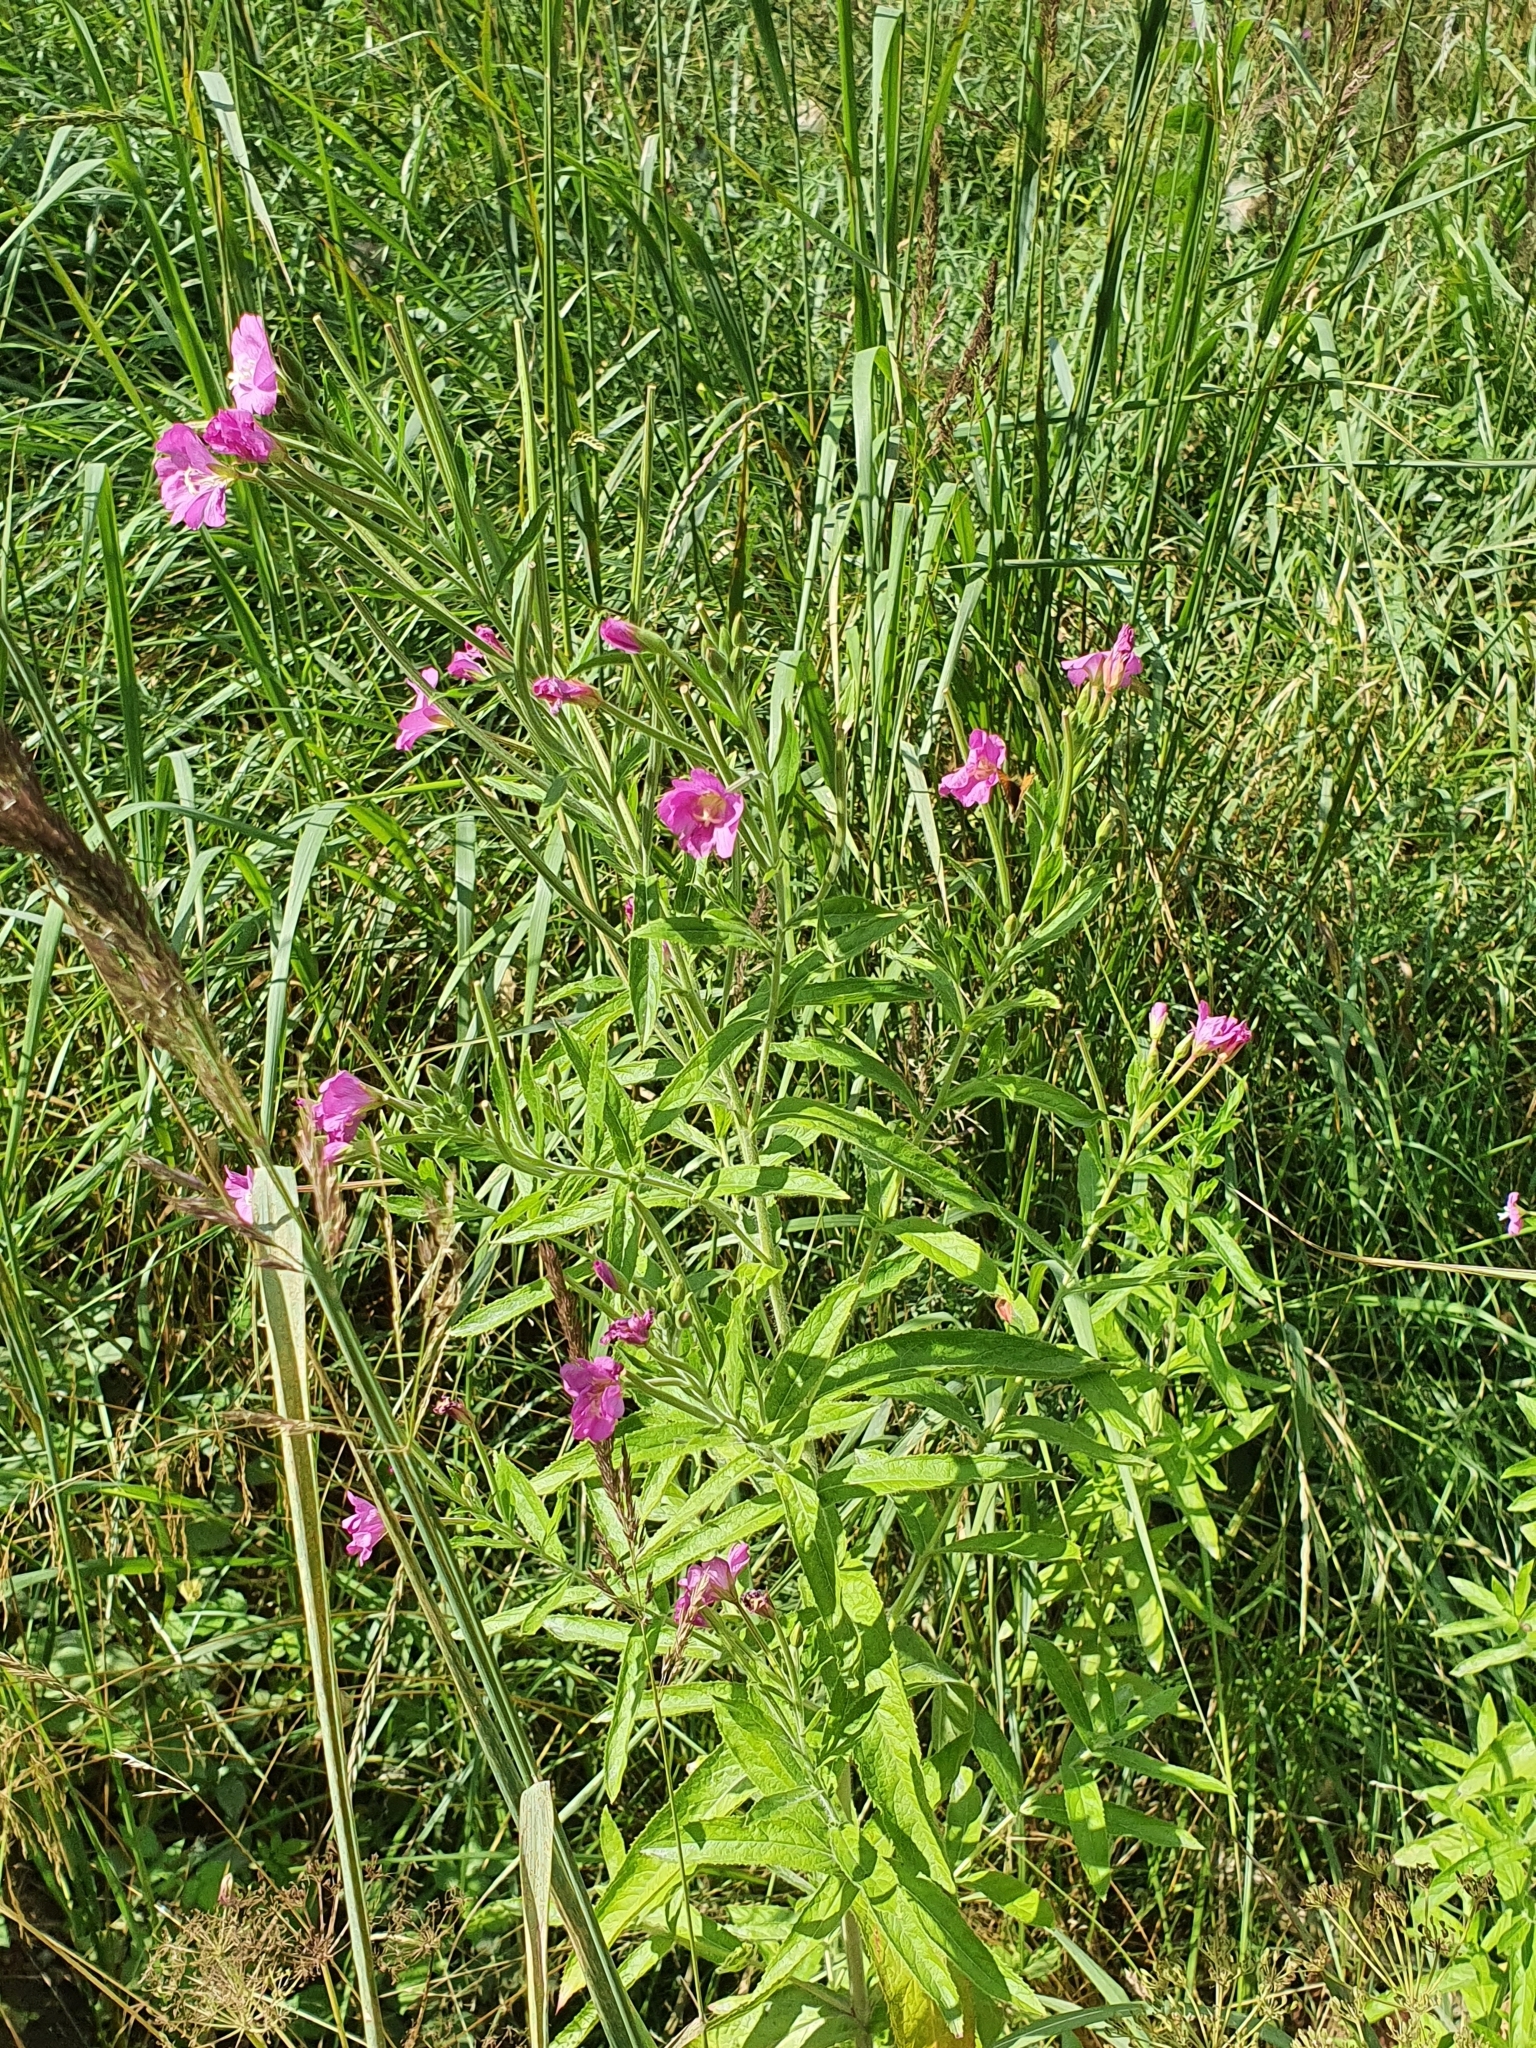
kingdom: Plantae
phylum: Tracheophyta
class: Magnoliopsida
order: Myrtales
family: Onagraceae
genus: Epilobium
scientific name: Epilobium hirsutum
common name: Great willowherb
